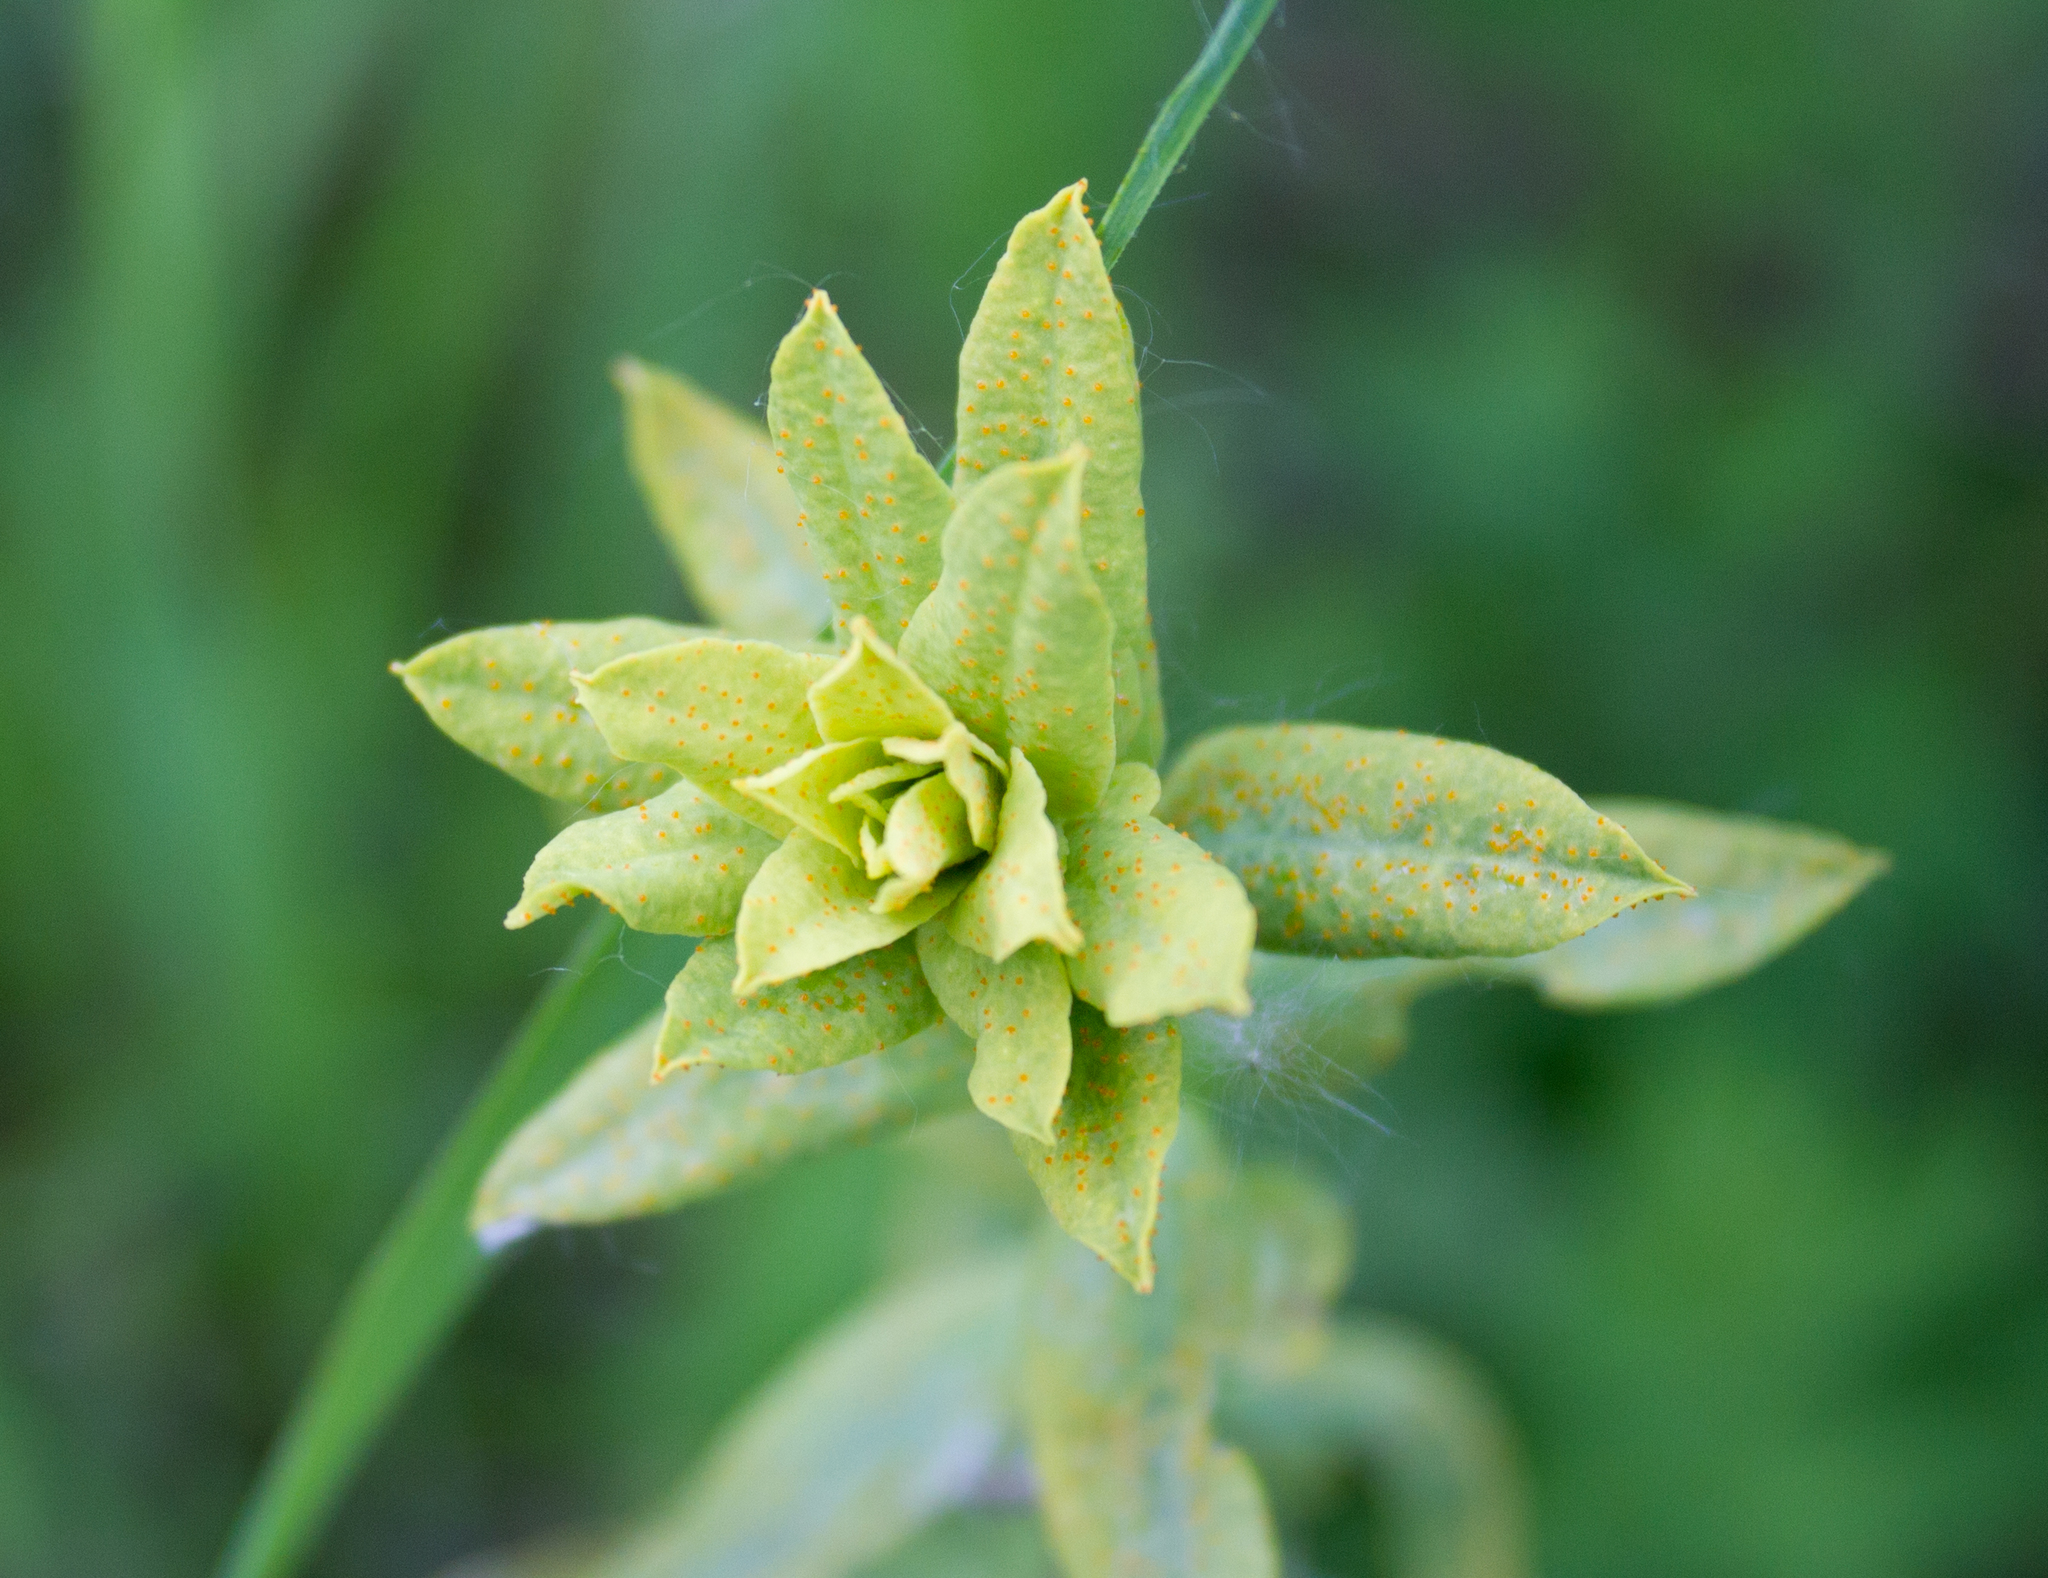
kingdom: Plantae
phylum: Tracheophyta
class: Magnoliopsida
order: Malpighiales
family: Euphorbiaceae
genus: Euphorbia
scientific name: Euphorbia virgata
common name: Leafy spurge
